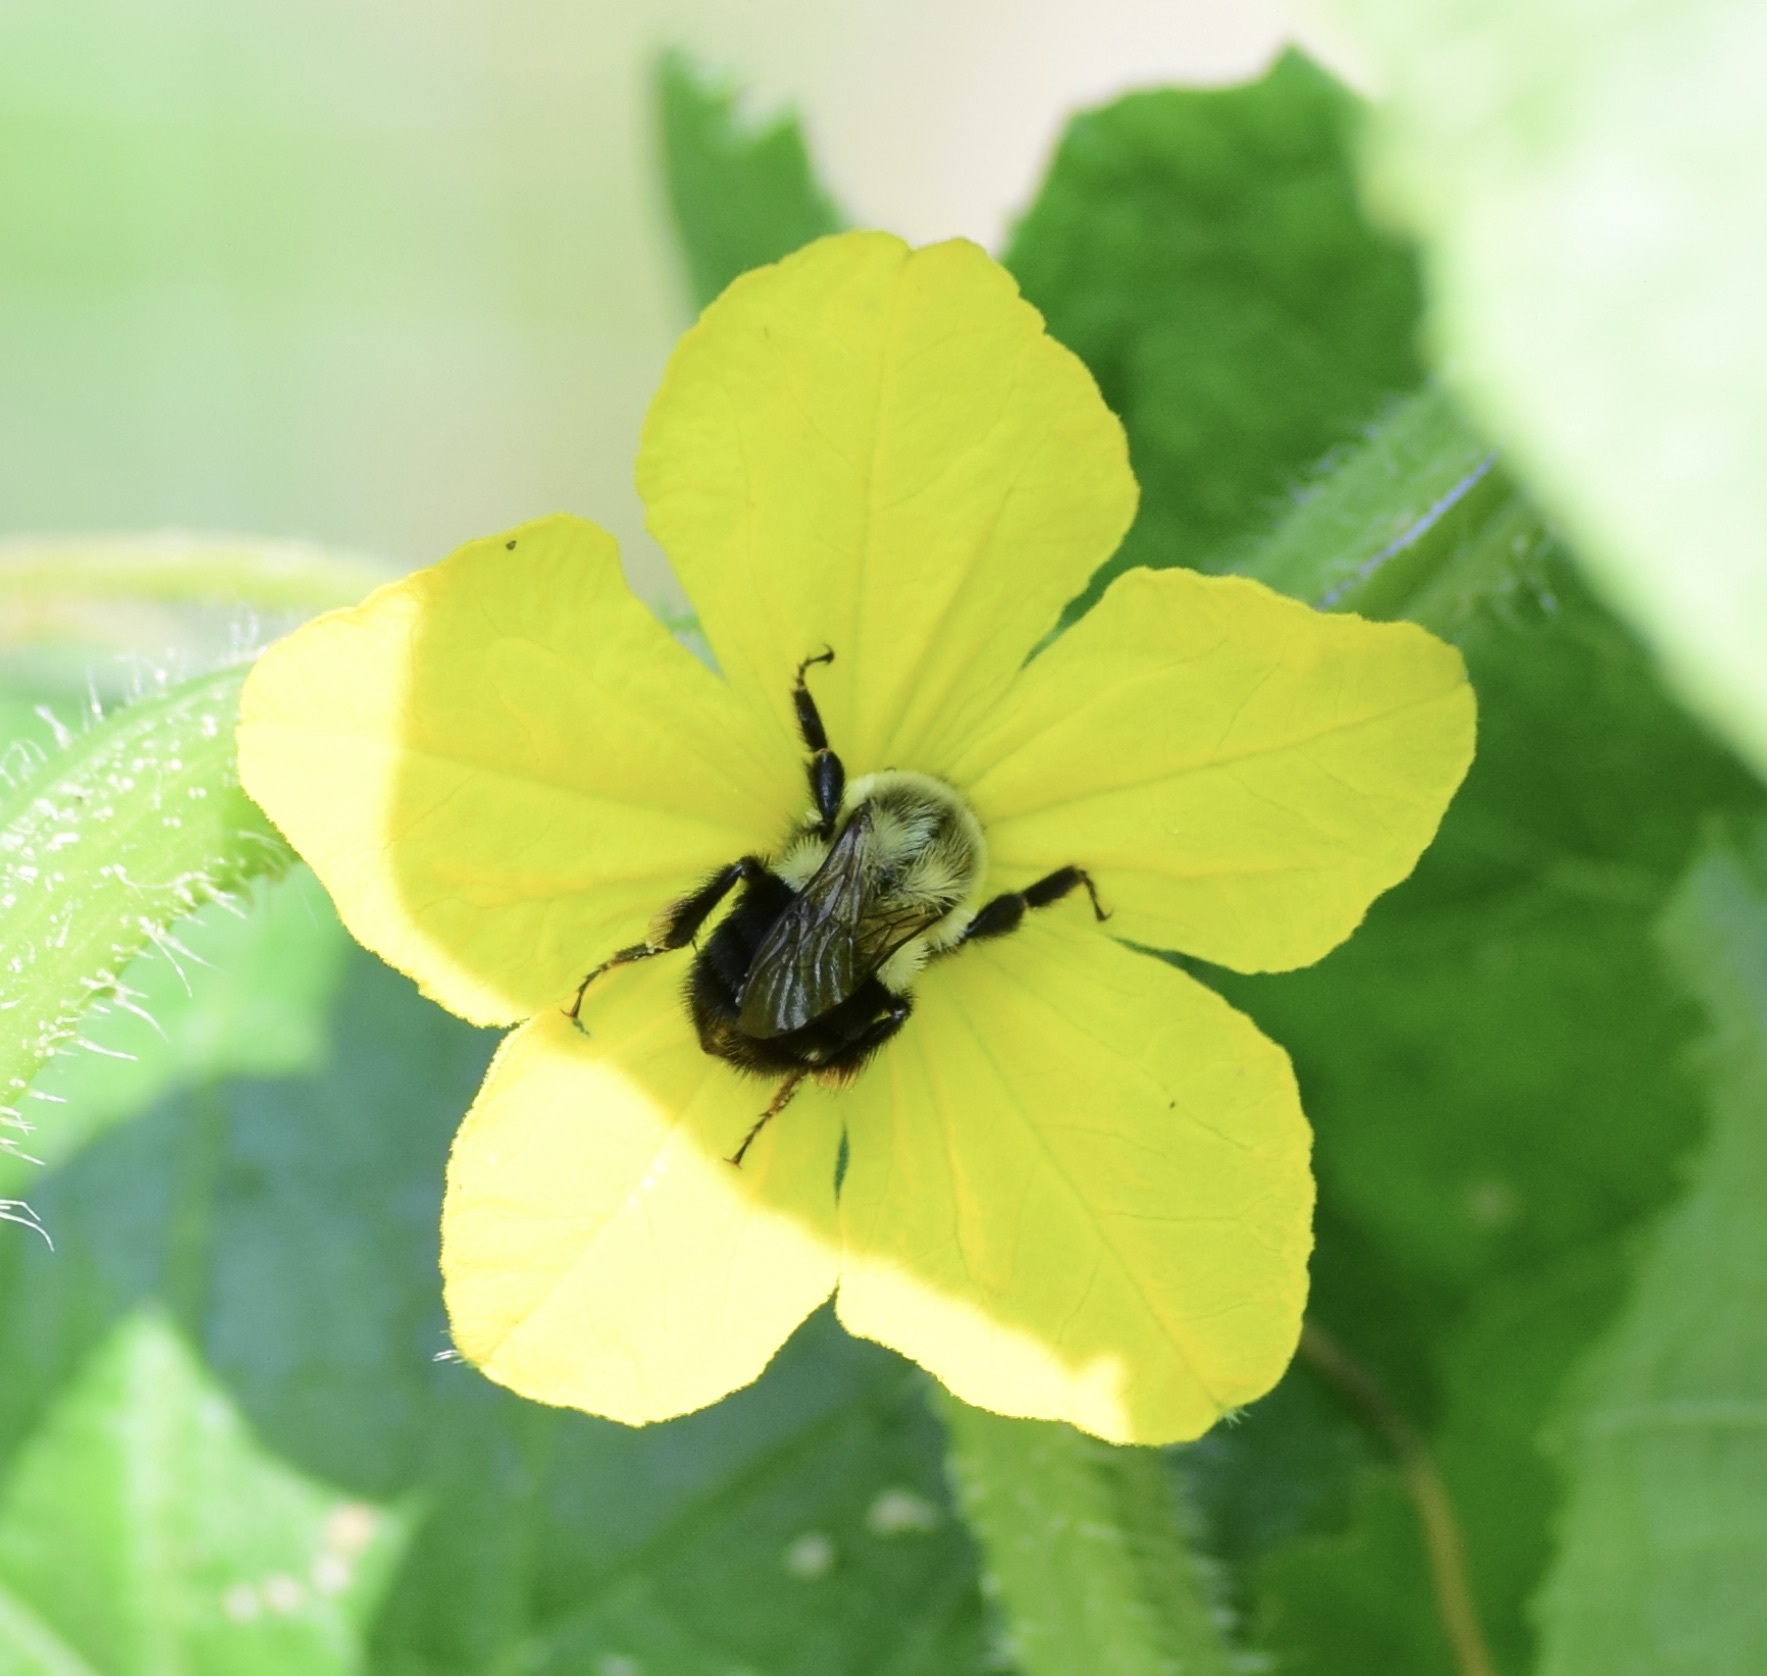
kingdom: Animalia
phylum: Arthropoda
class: Insecta
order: Hymenoptera
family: Apidae
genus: Bombus
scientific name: Bombus impatiens
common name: Common eastern bumble bee
